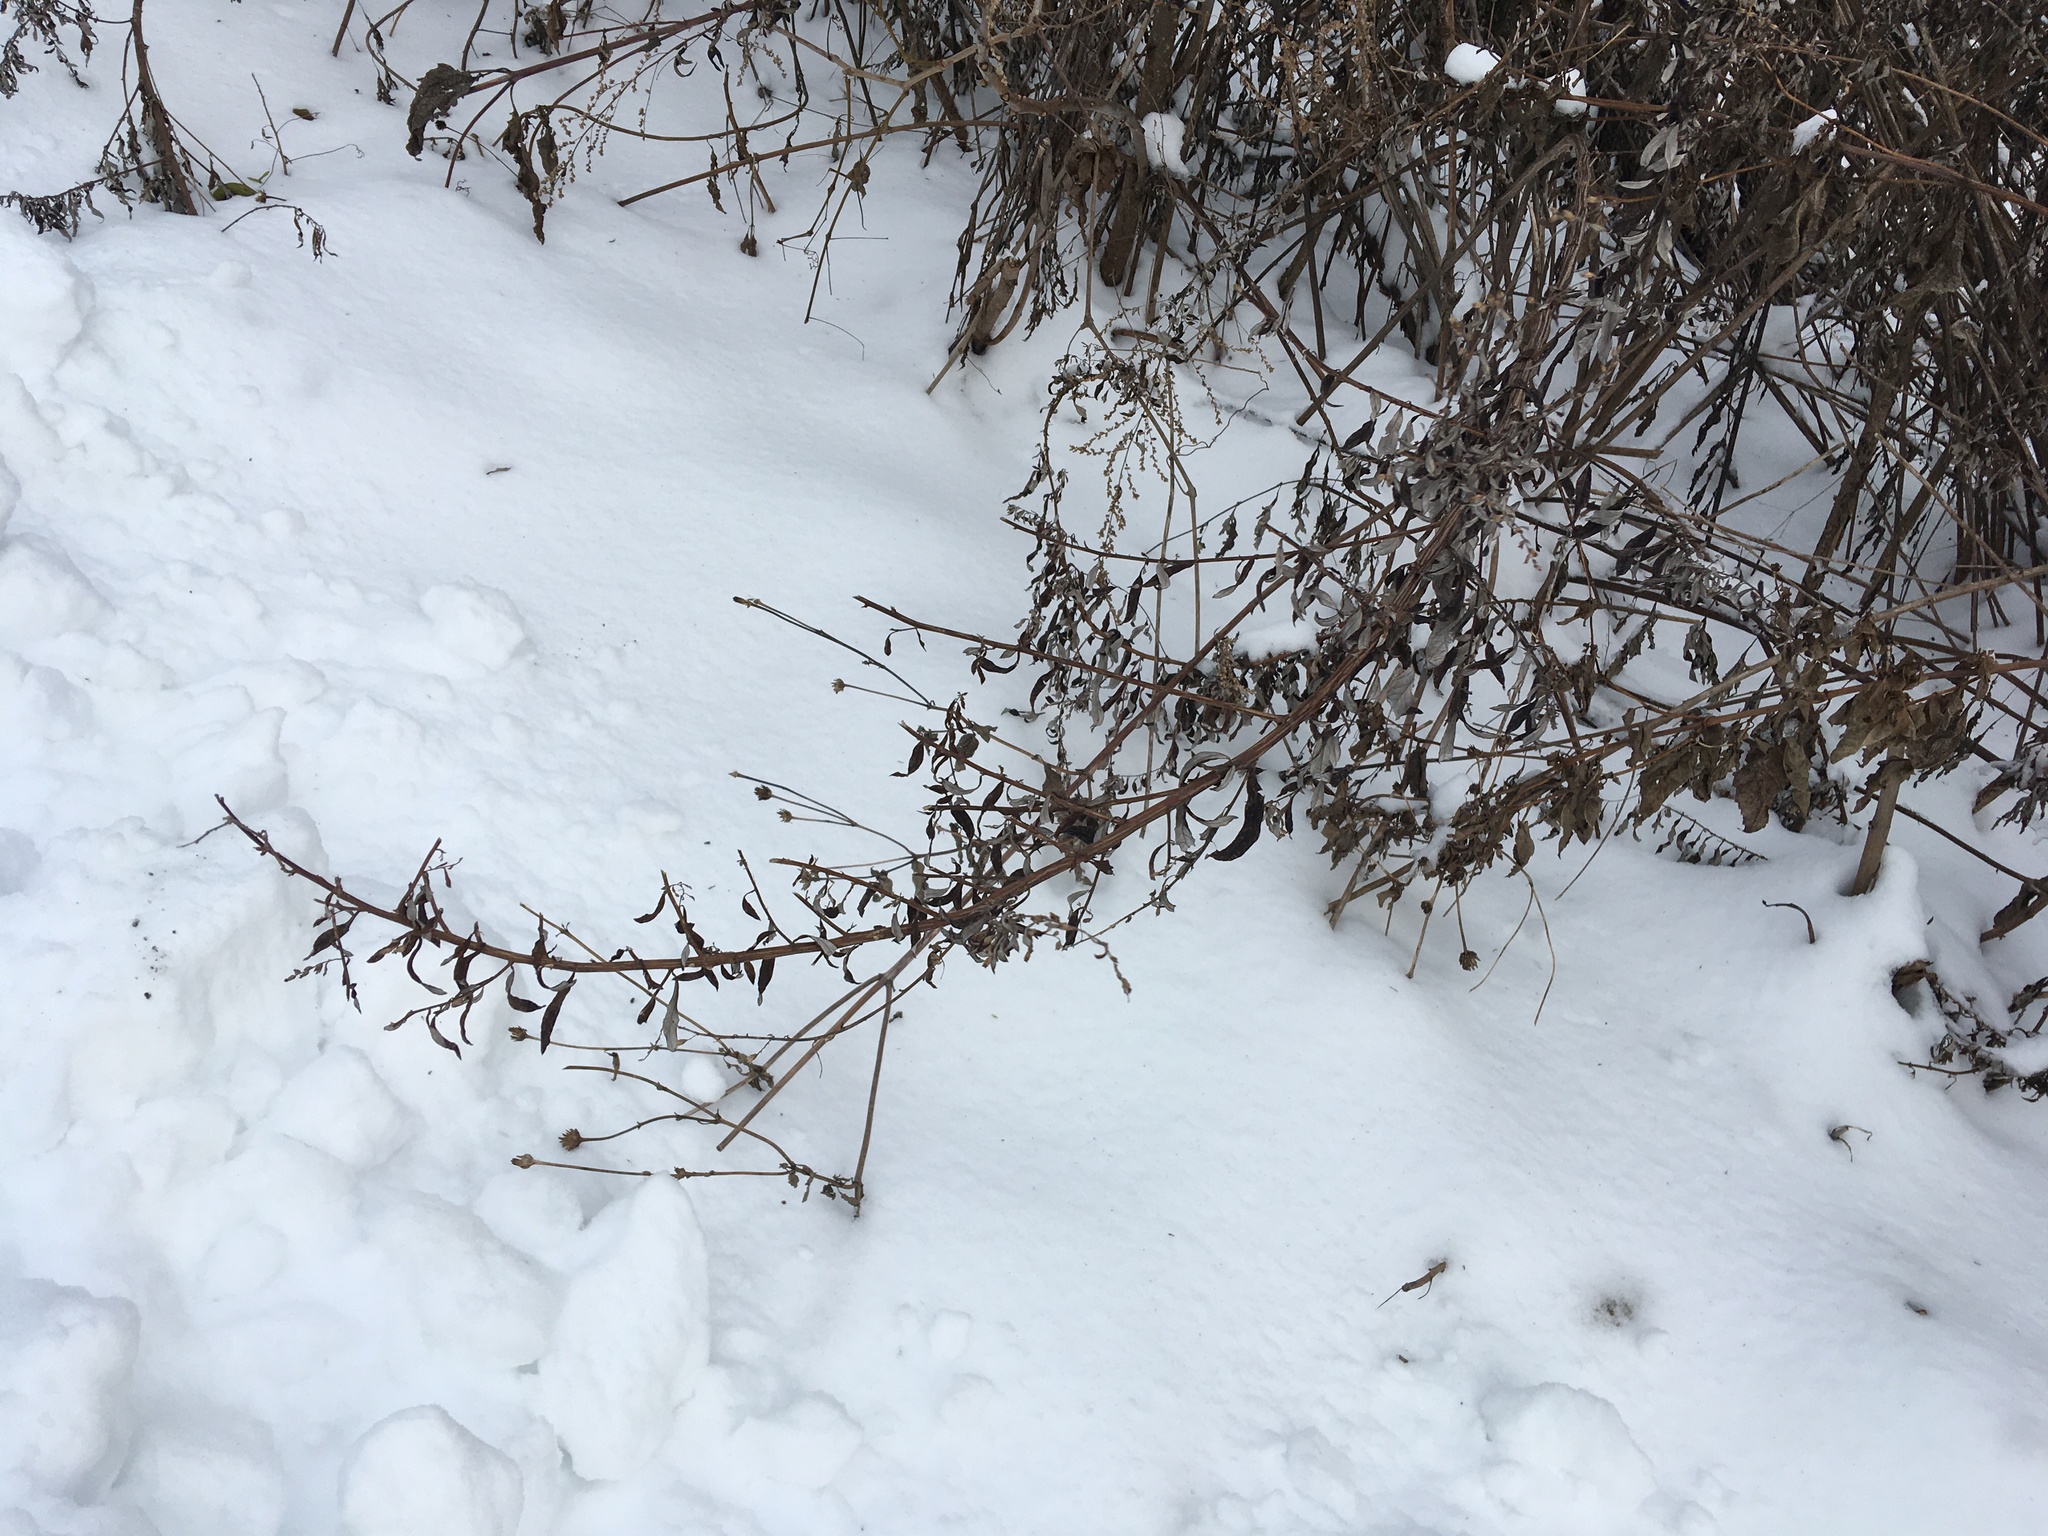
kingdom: Plantae
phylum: Tracheophyta
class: Magnoliopsida
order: Asterales
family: Asteraceae
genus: Artemisia
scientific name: Artemisia vulgaris
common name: Mugwort
